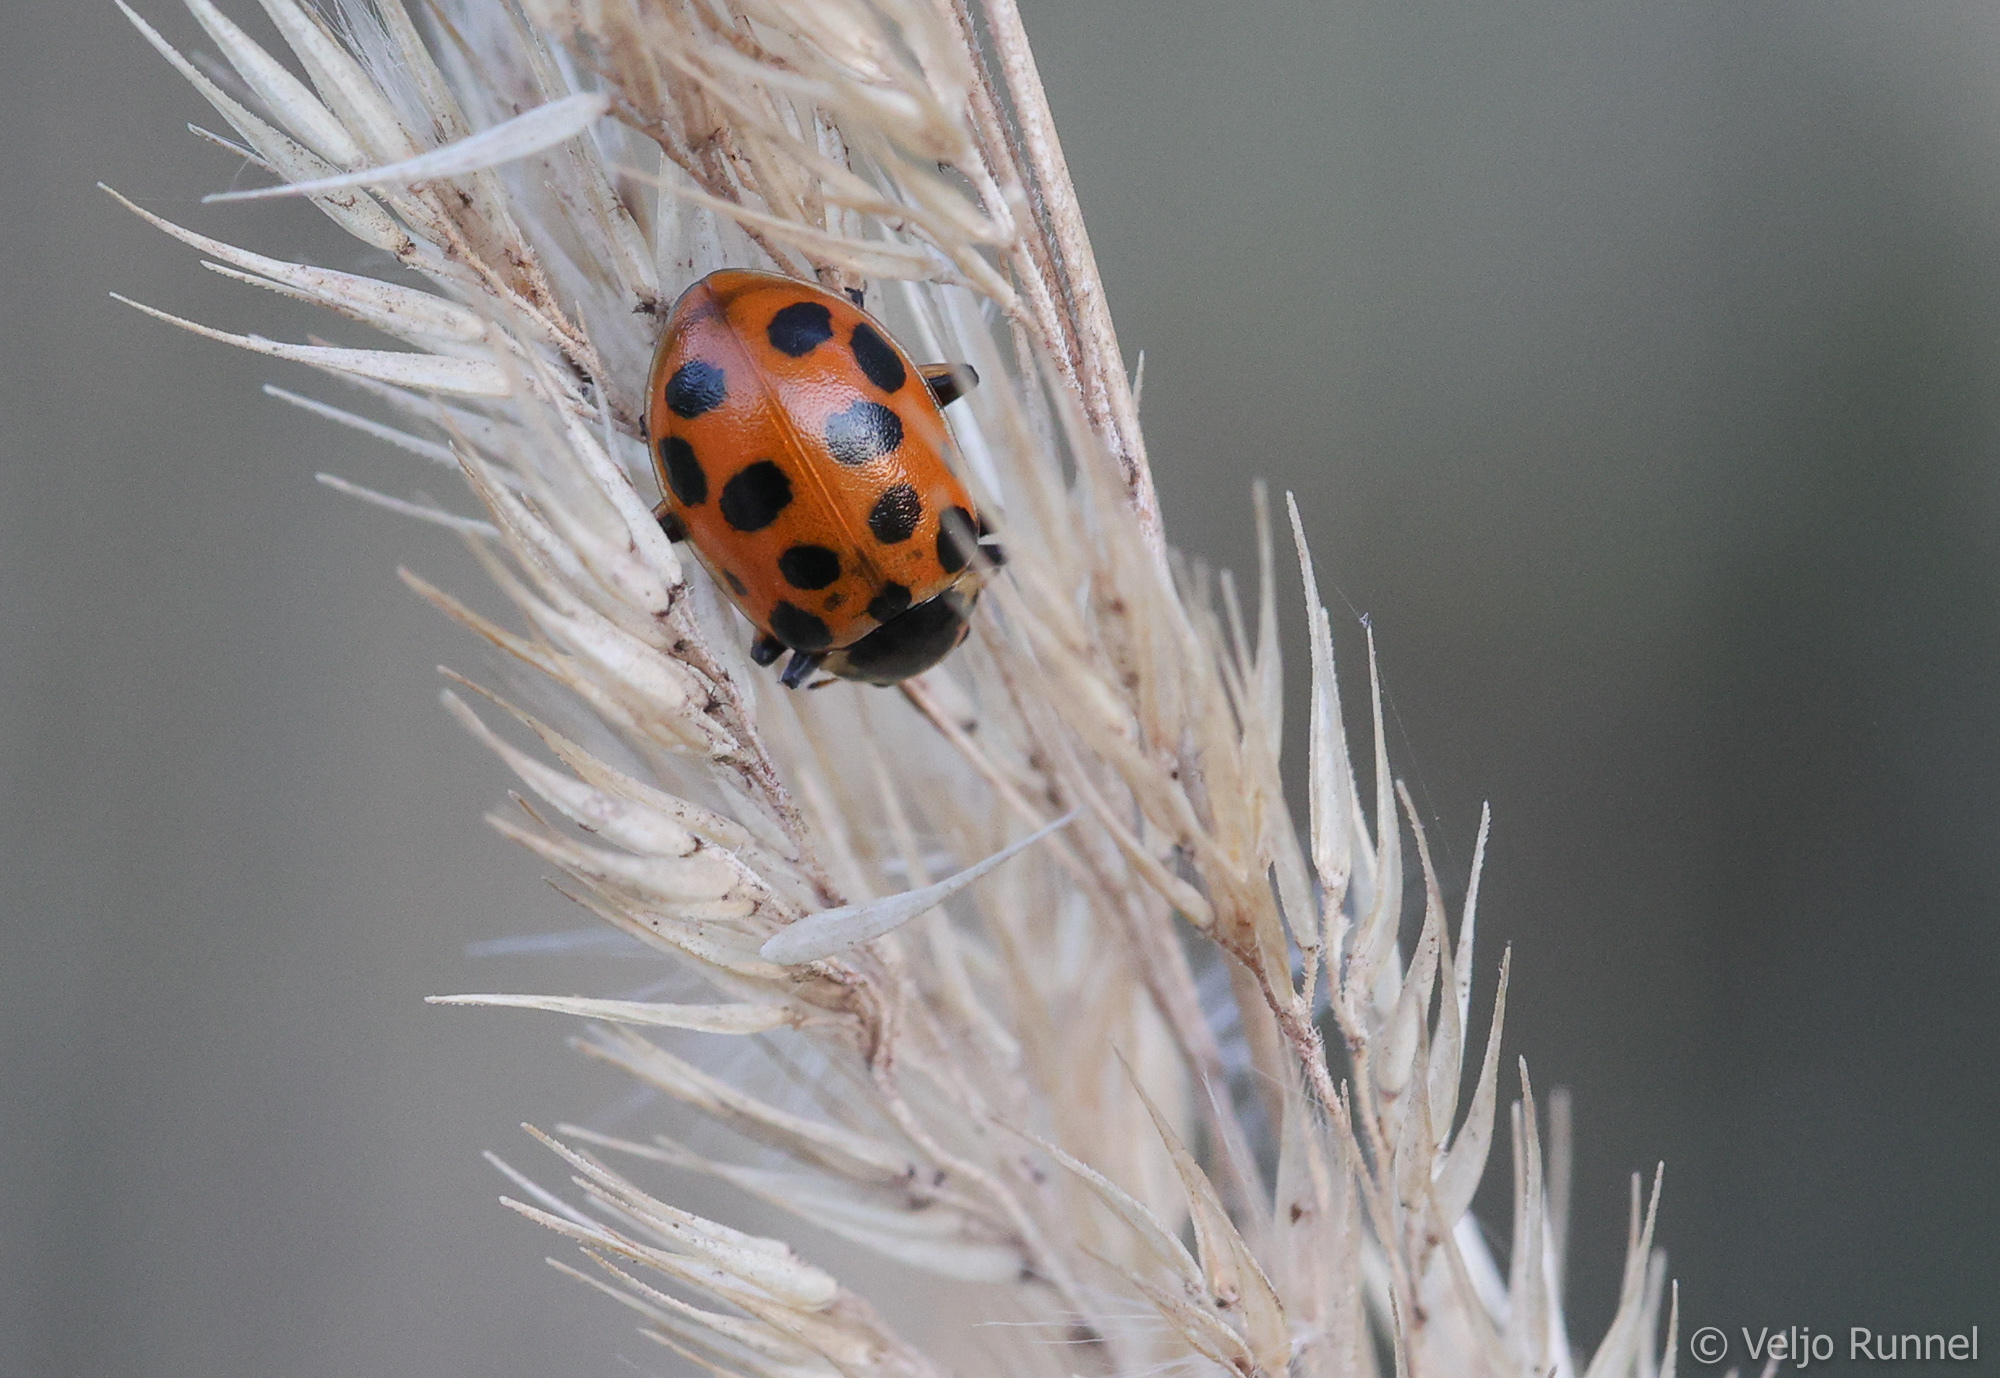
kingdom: Animalia
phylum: Arthropoda
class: Insecta
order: Coleoptera
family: Coccinellidae
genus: Hippodamia
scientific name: Hippodamia tredecimpunctata
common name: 13-spot ladybird
